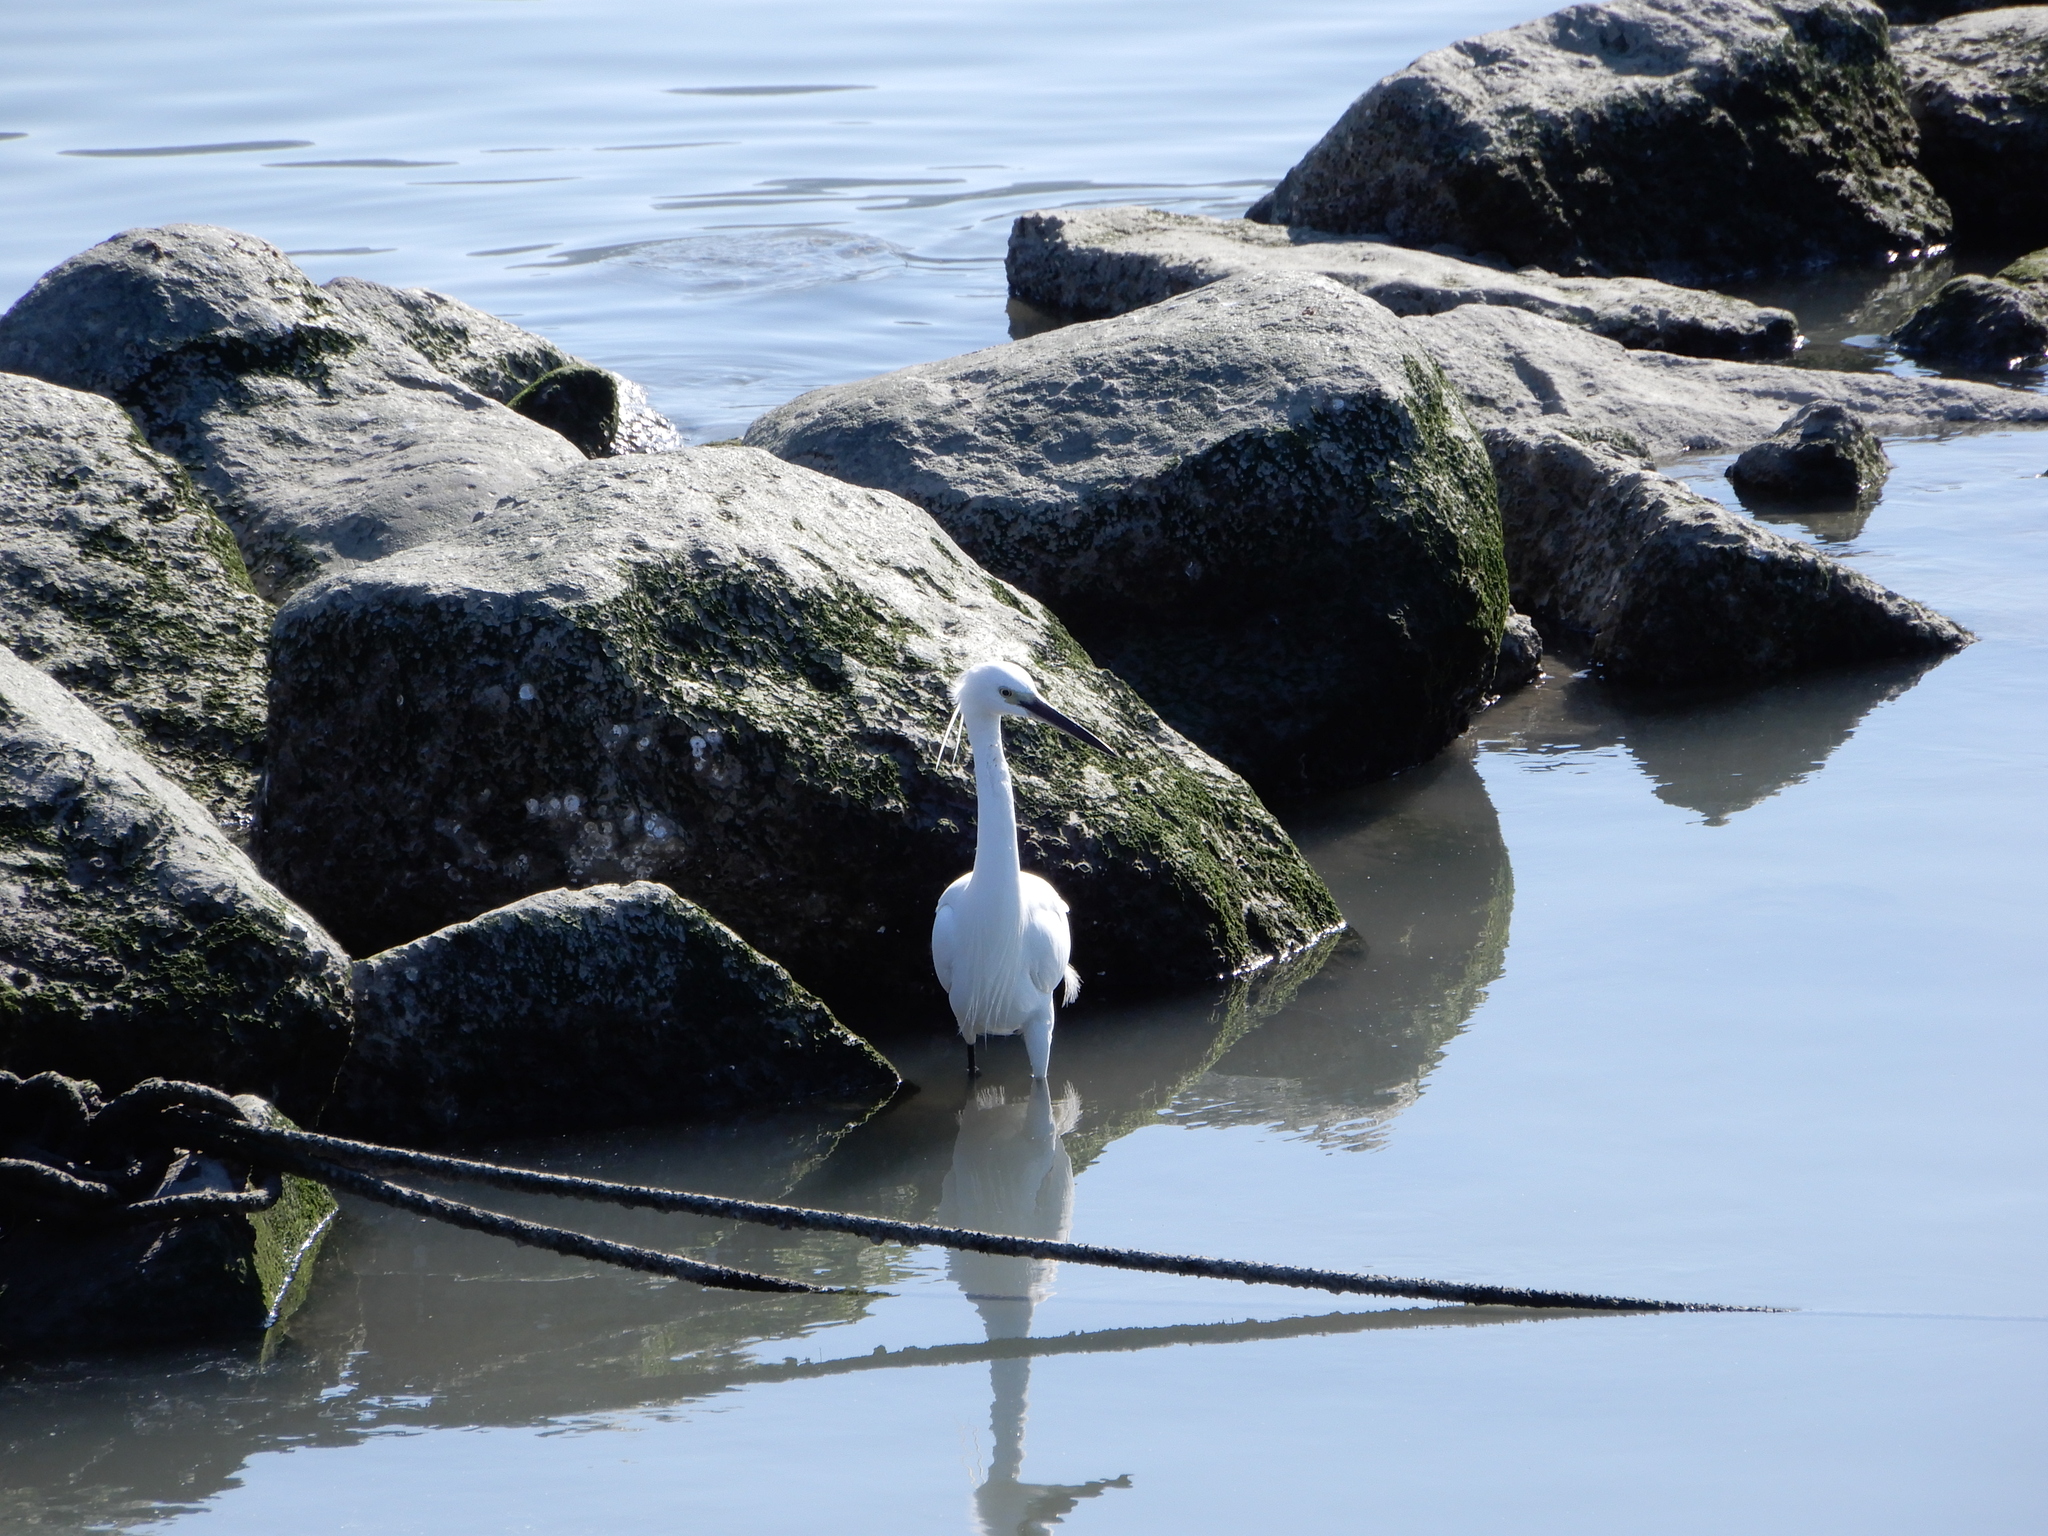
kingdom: Animalia
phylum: Chordata
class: Aves
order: Pelecaniformes
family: Ardeidae
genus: Egretta
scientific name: Egretta garzetta
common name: Little egret
